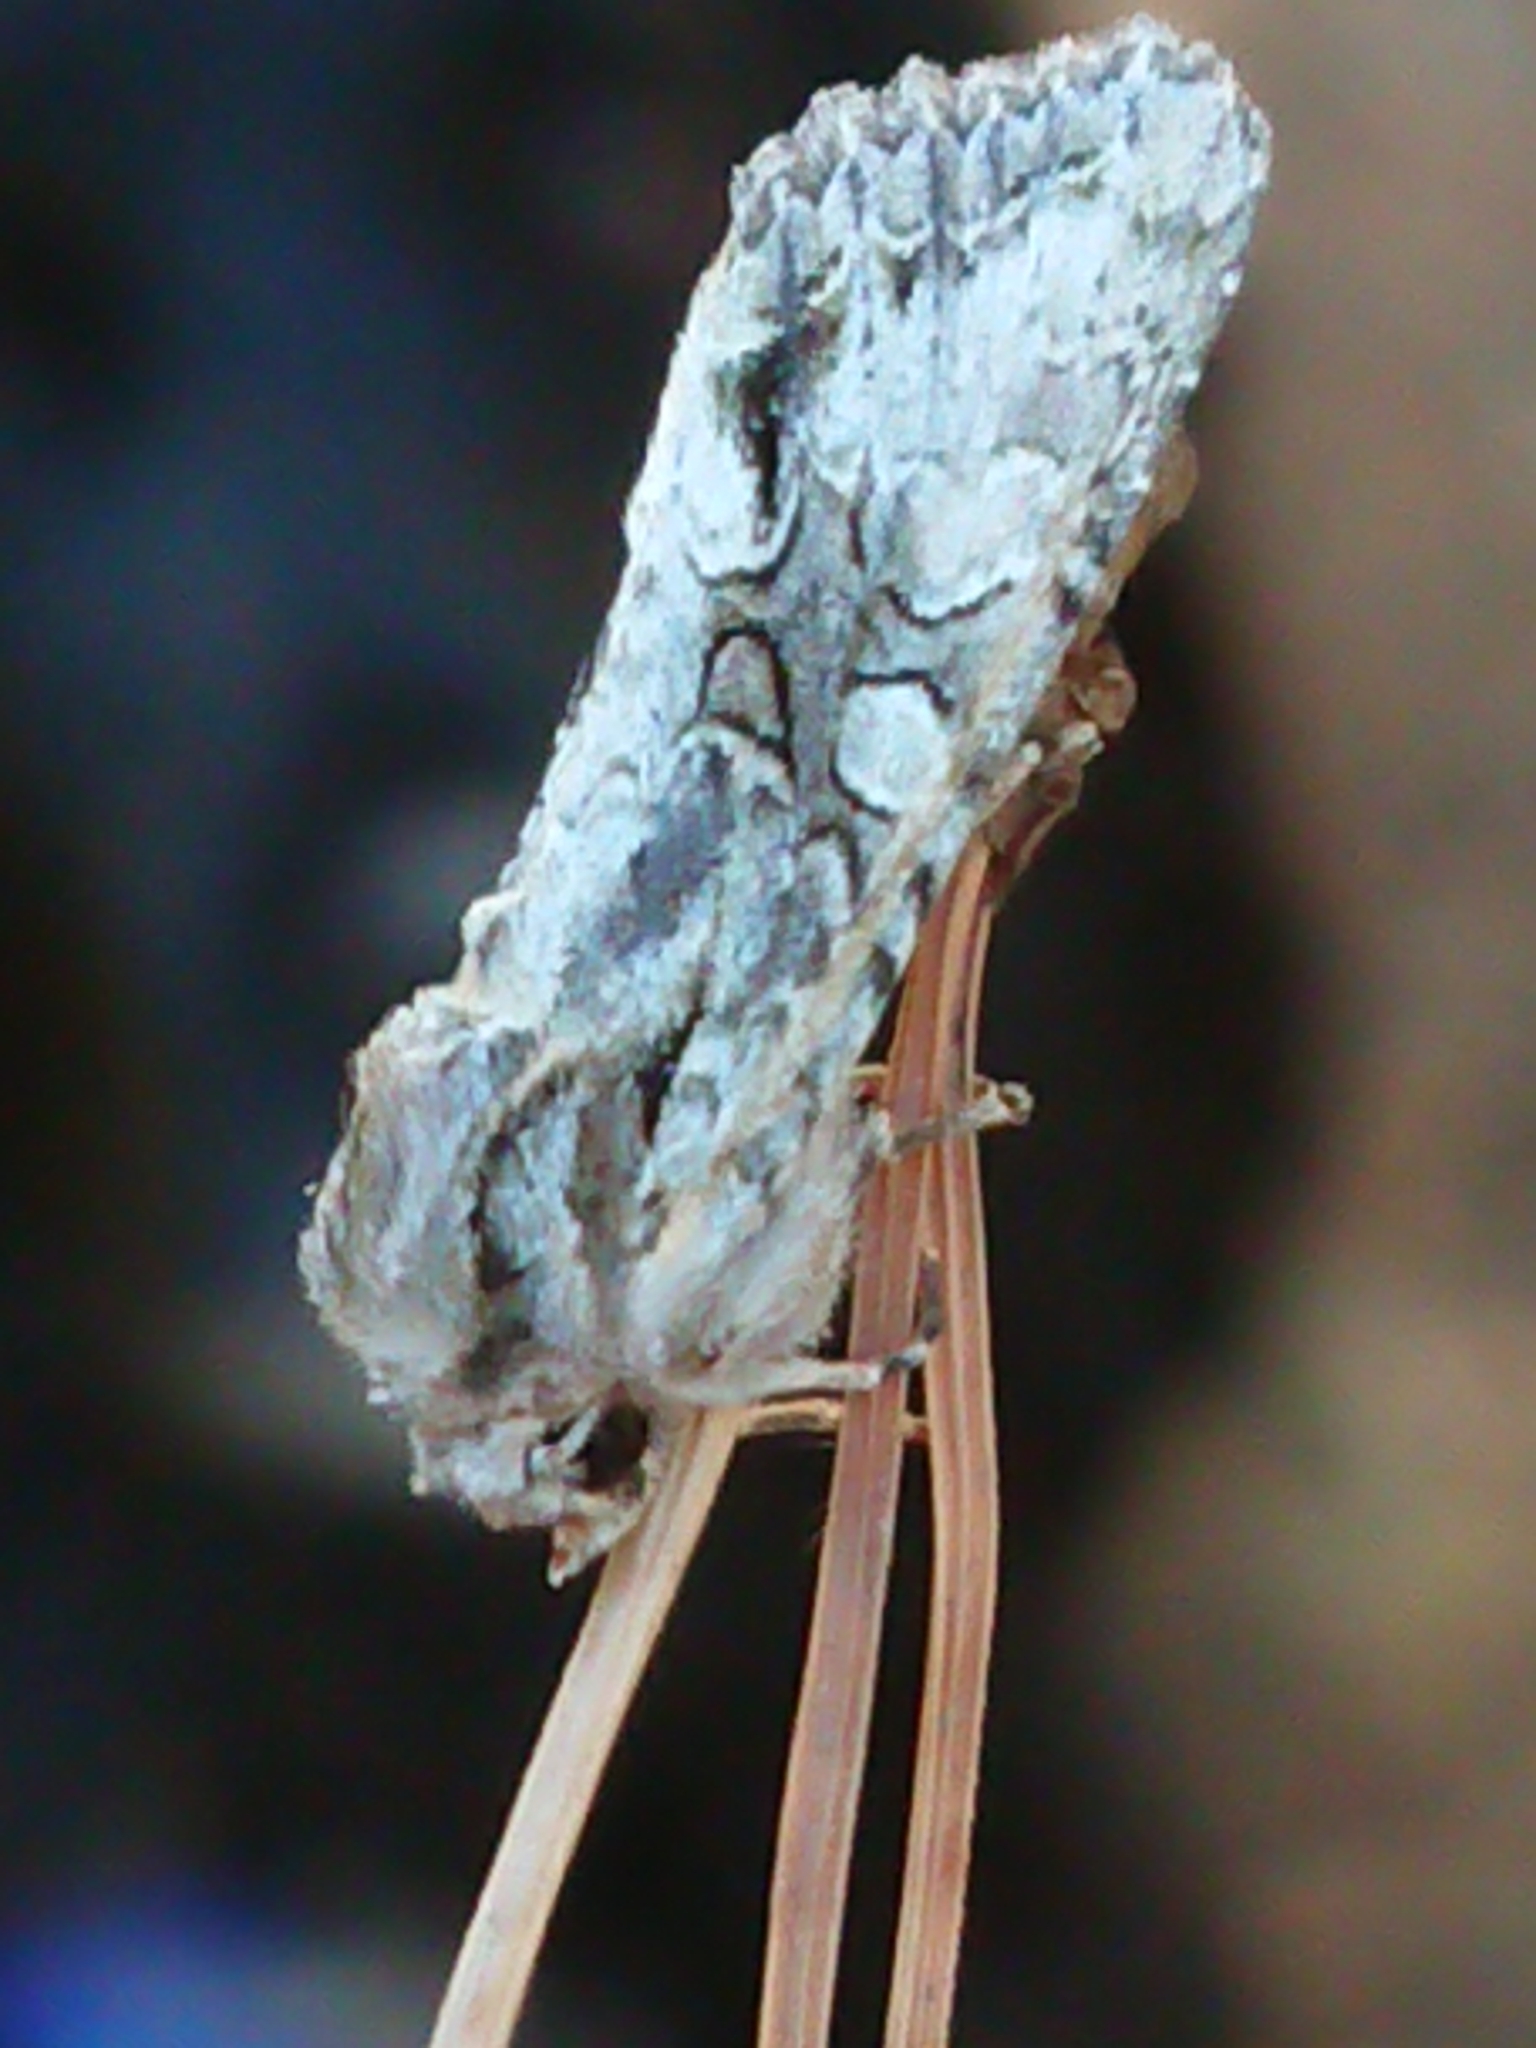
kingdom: Animalia
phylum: Arthropoda
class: Insecta
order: Lepidoptera
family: Noctuidae
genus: Ichneutica
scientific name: Ichneutica mutans
